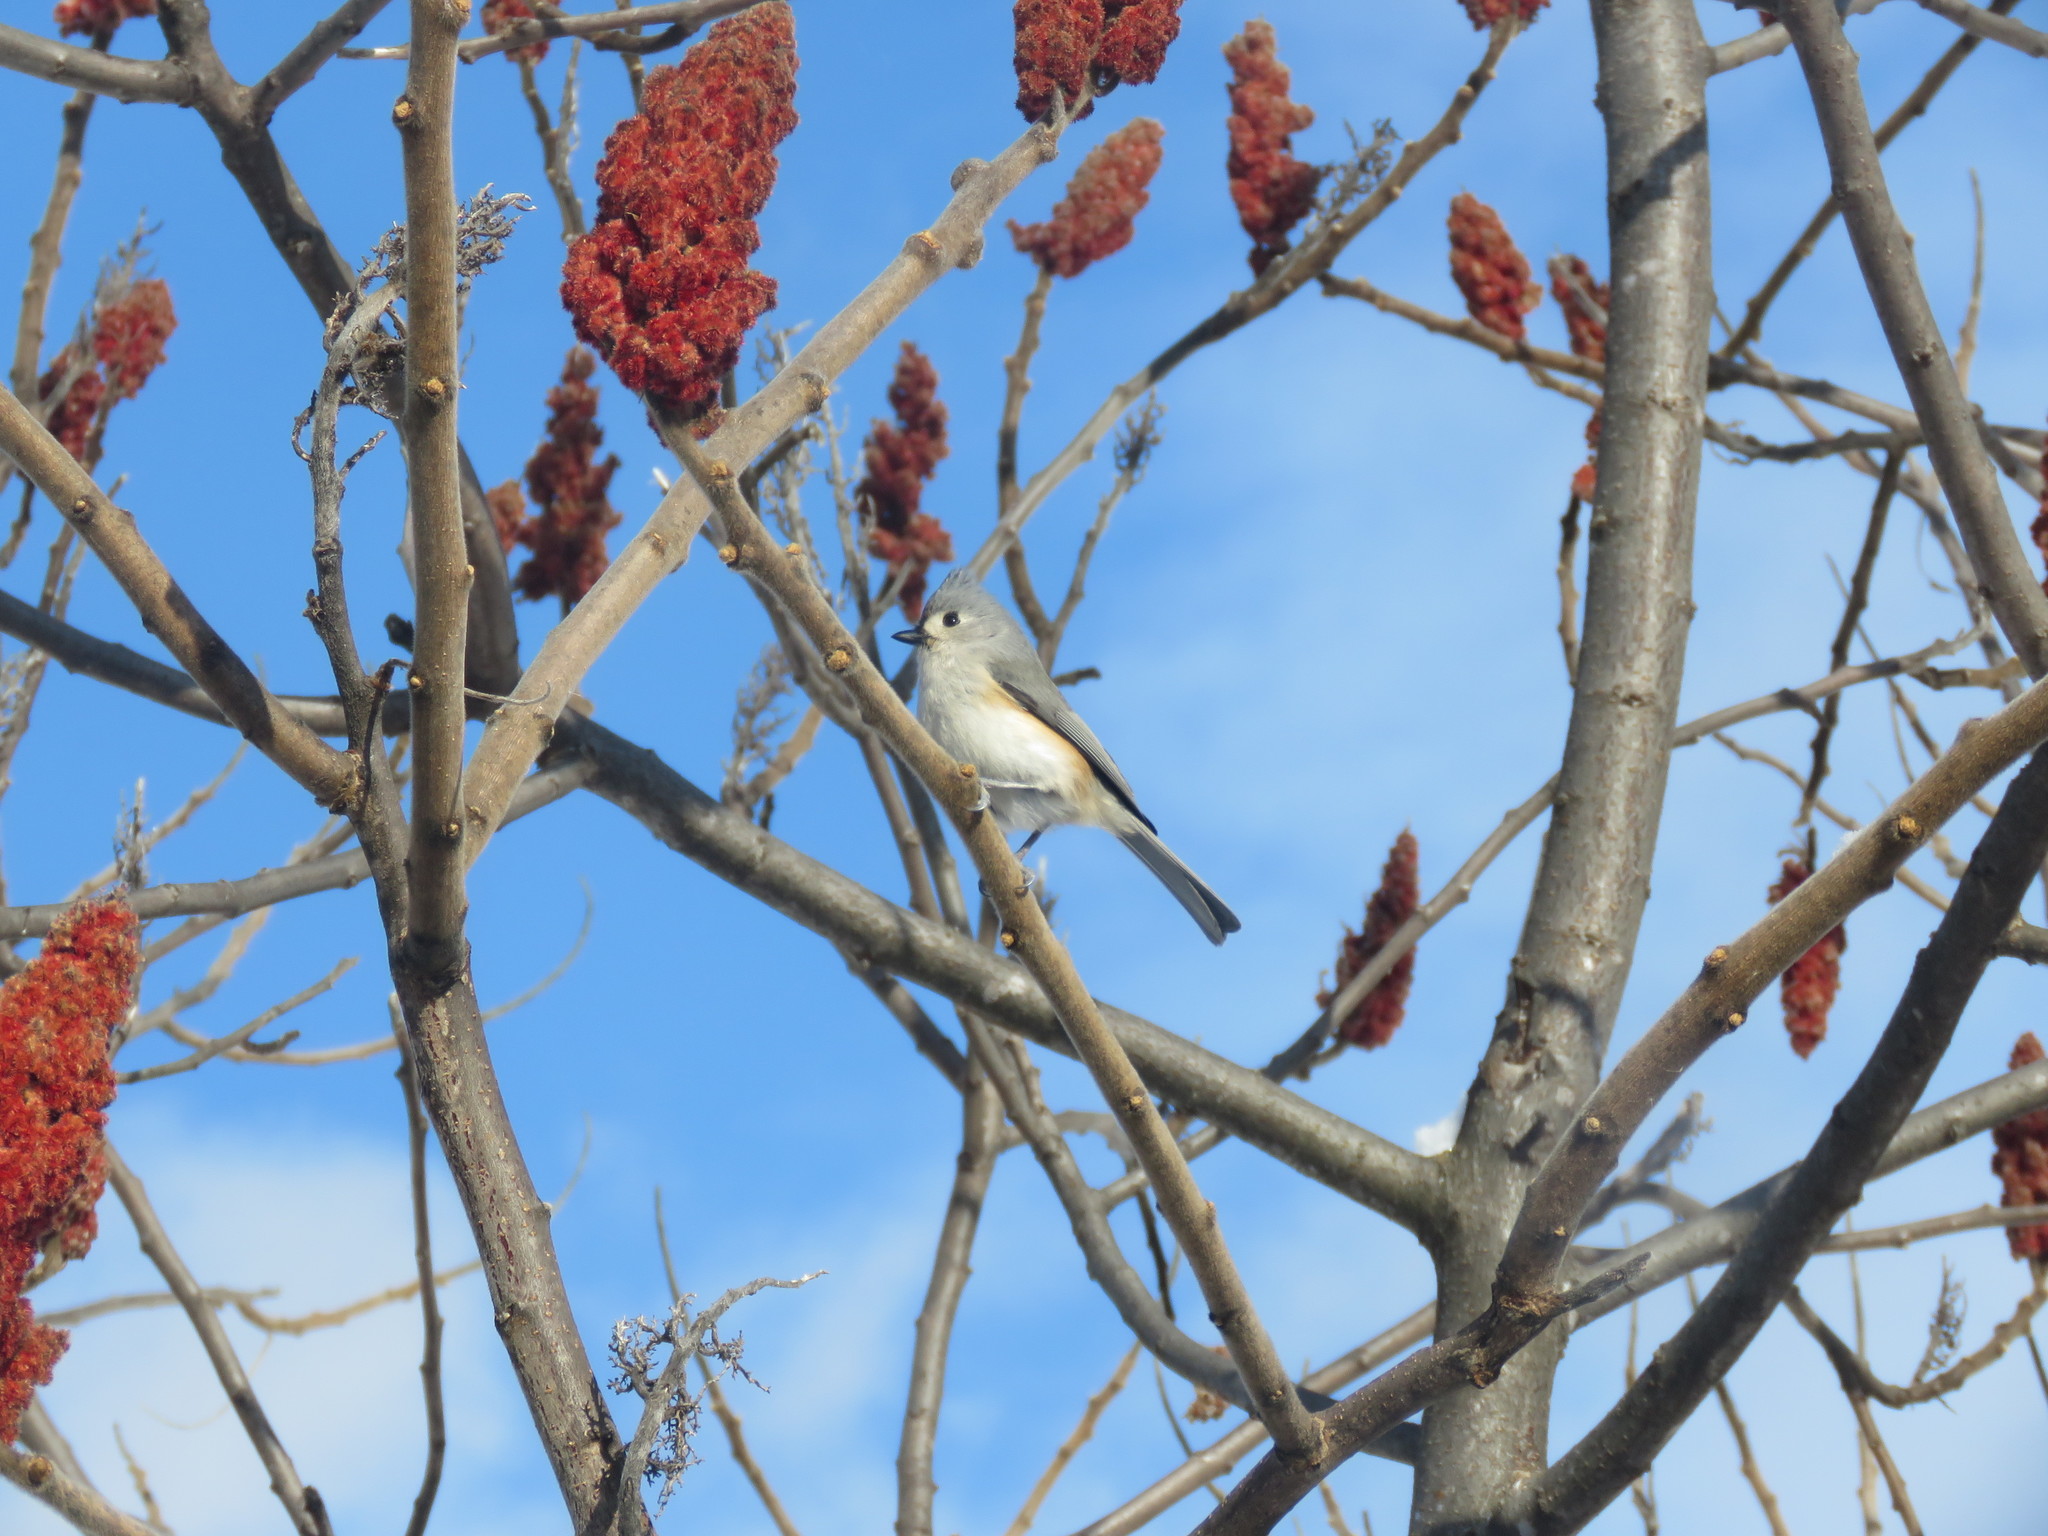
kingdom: Animalia
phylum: Chordata
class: Aves
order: Passeriformes
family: Paridae
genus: Baeolophus
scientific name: Baeolophus bicolor
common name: Tufted titmouse
